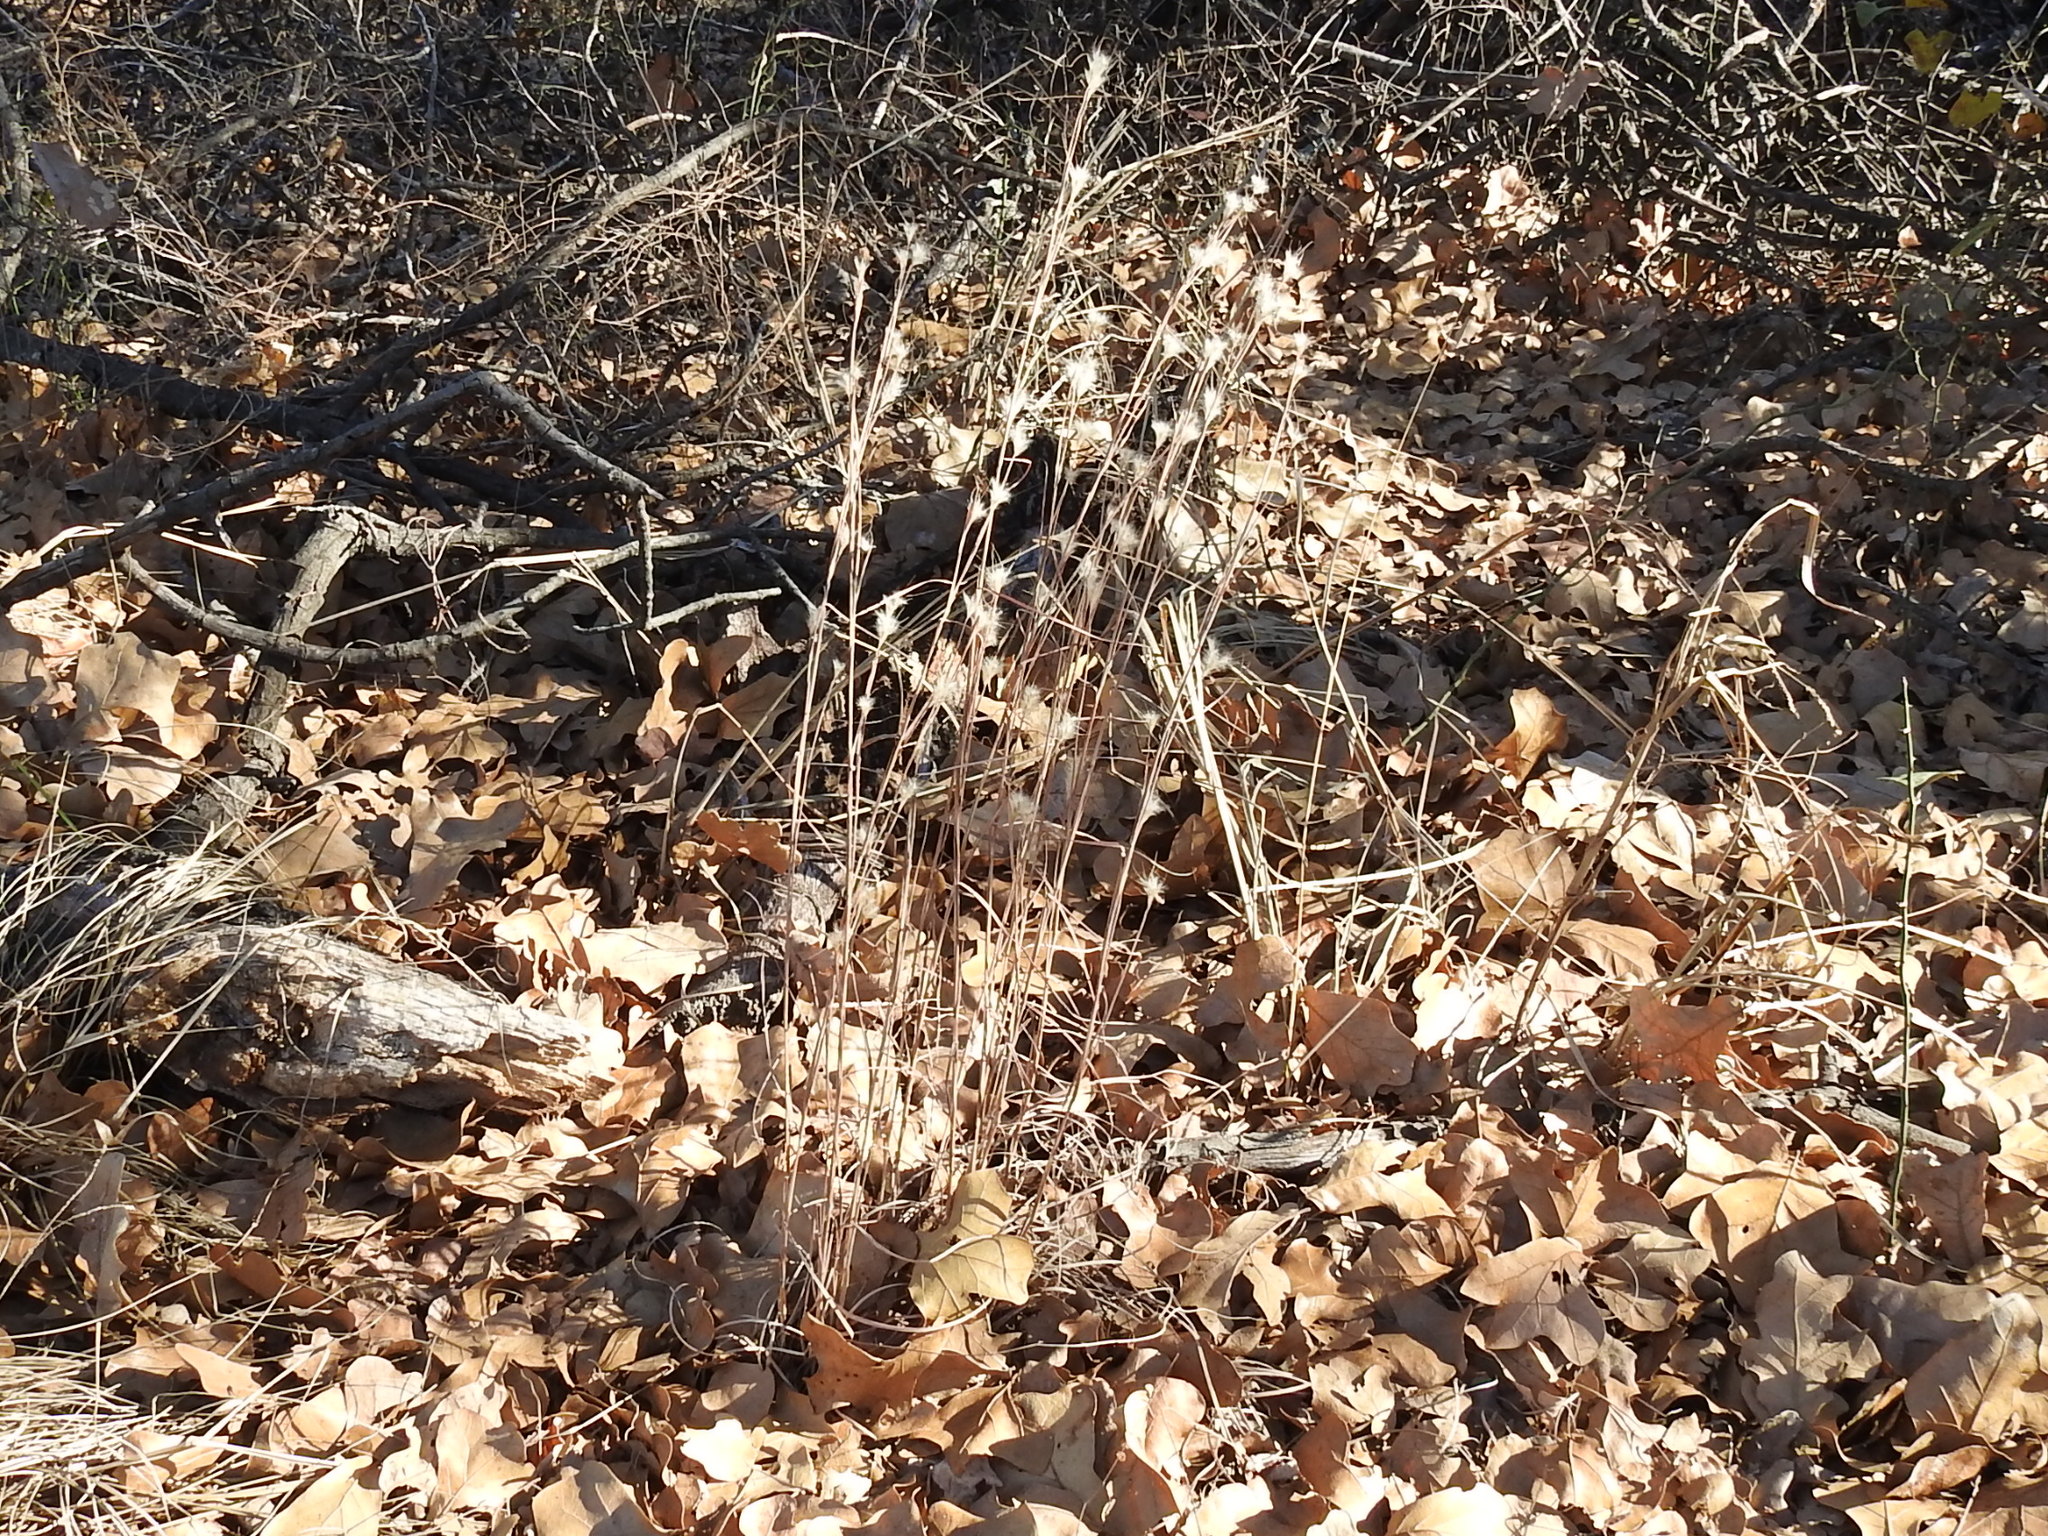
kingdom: Plantae
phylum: Tracheophyta
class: Liliopsida
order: Poales
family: Poaceae
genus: Andropogon
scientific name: Andropogon ternarius
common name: Split bluestem
